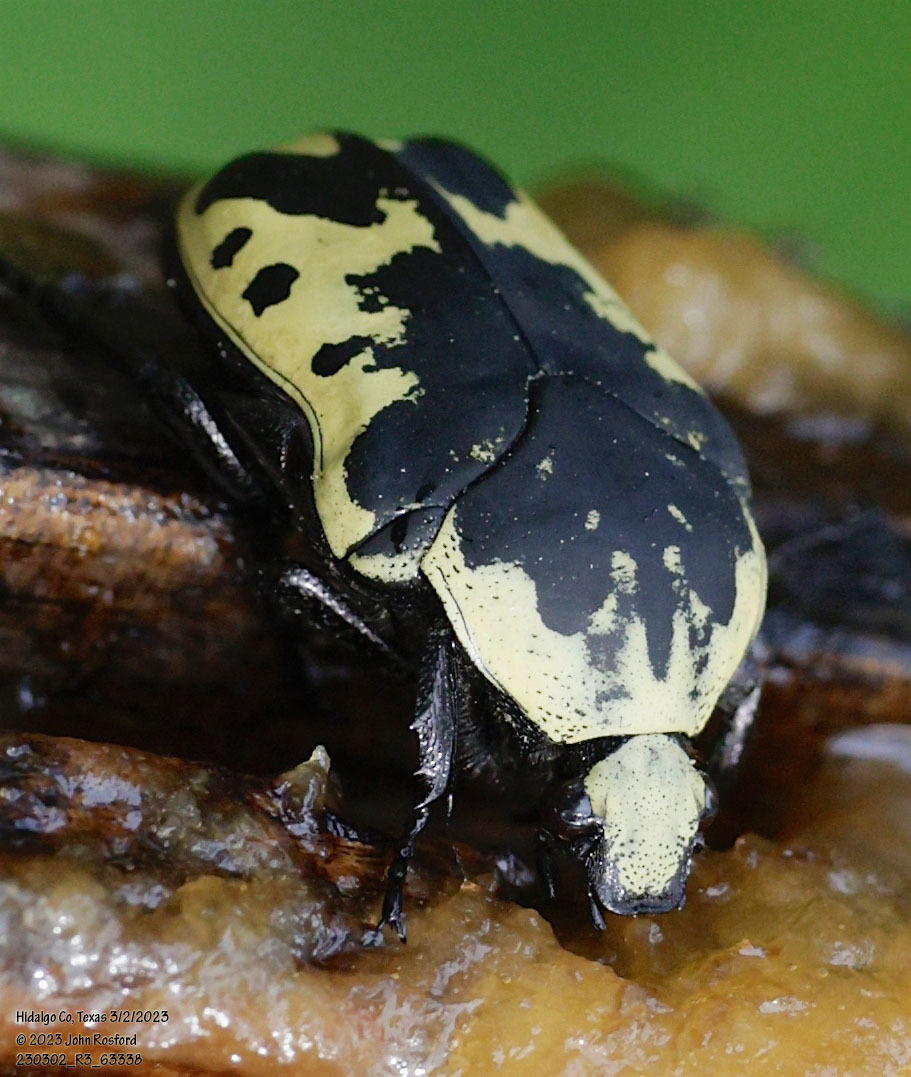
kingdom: Animalia
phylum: Arthropoda
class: Insecta
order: Coleoptera
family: Scarabaeidae
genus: Gymnetis
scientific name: Gymnetis thula
